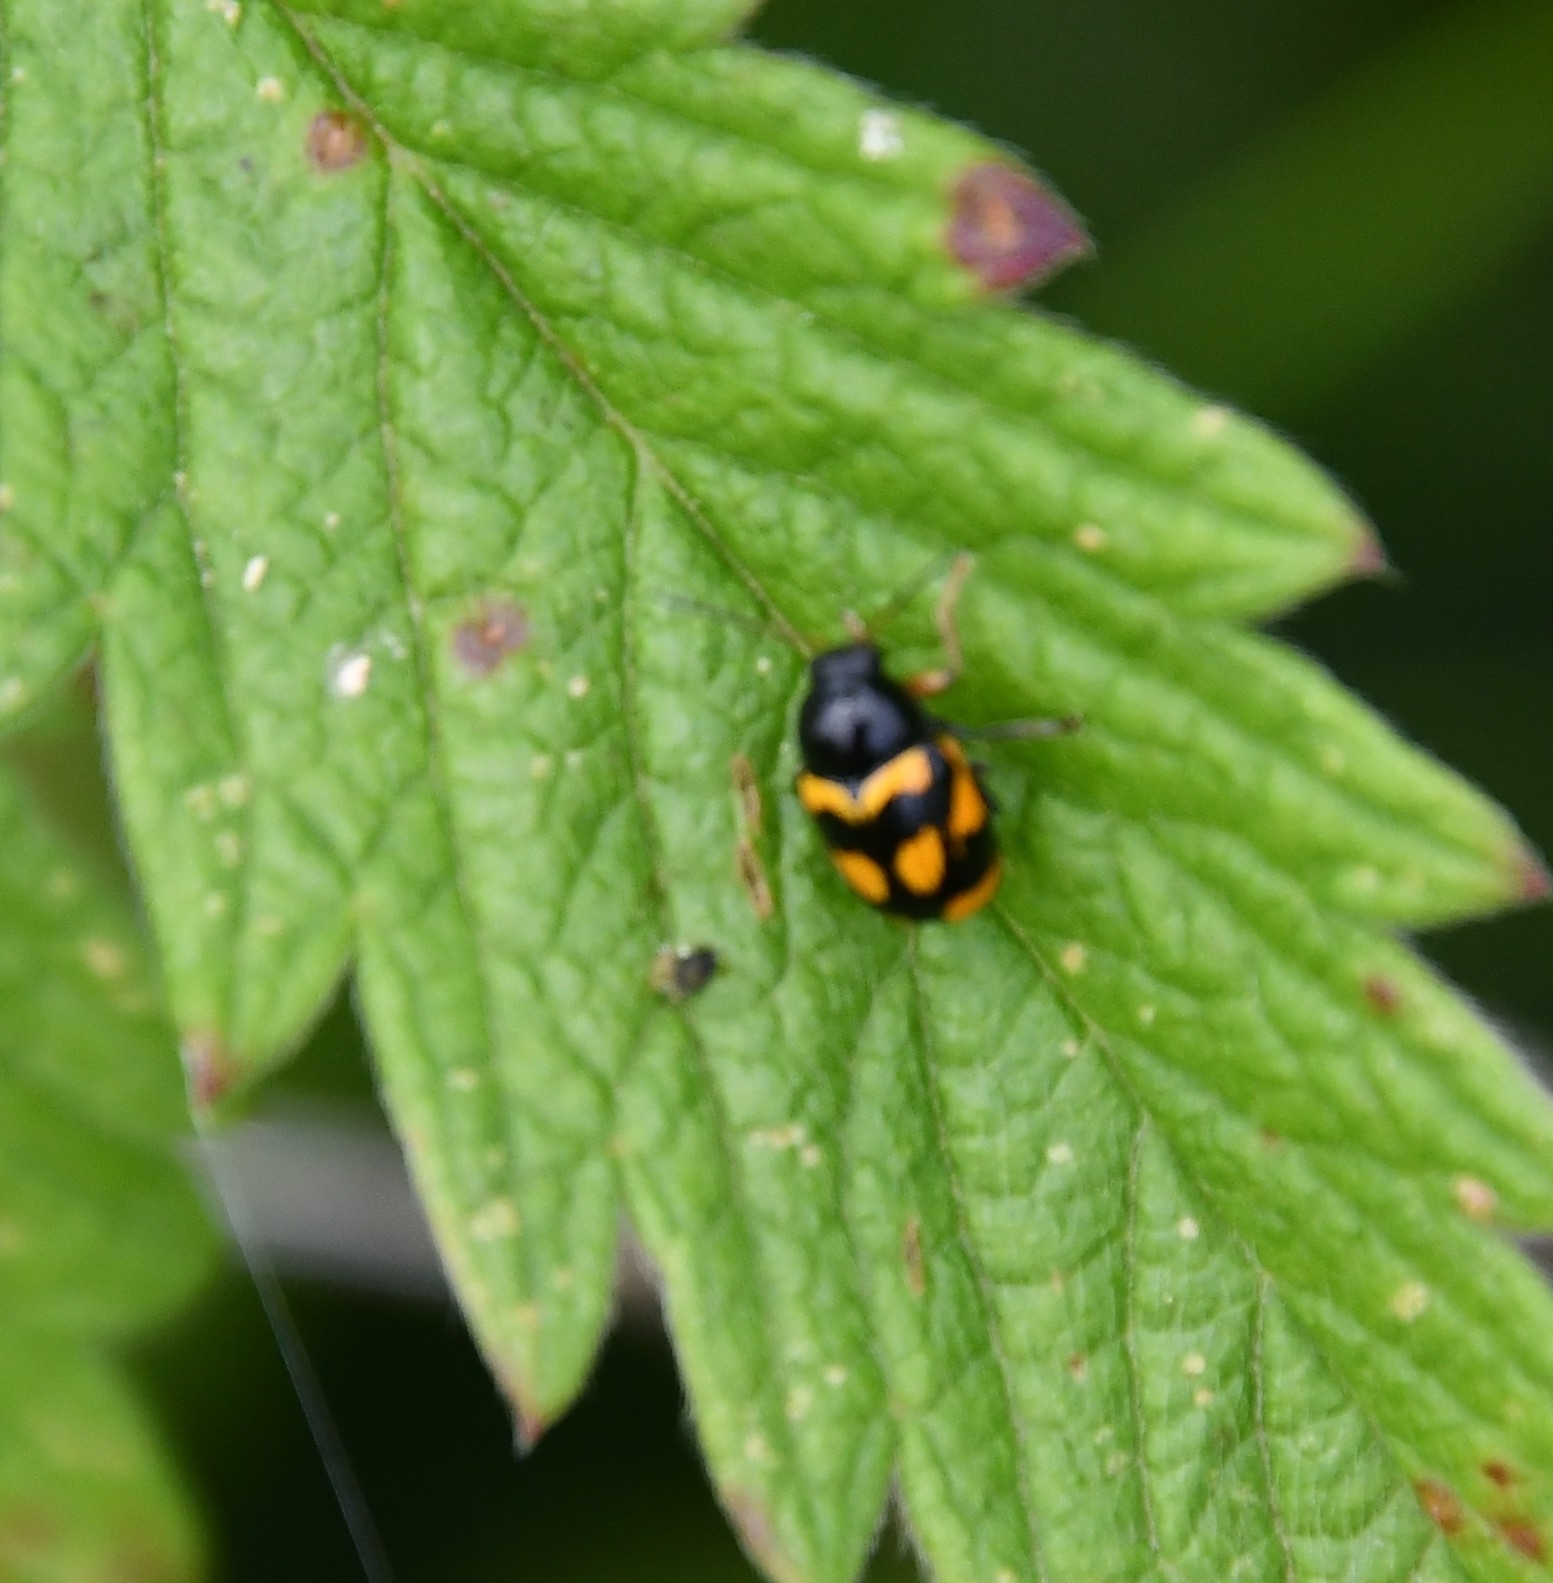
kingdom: Animalia
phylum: Arthropoda
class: Insecta
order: Coleoptera
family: Chrysomelidae
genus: Cryptocephalus
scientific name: Cryptocephalus anticus
